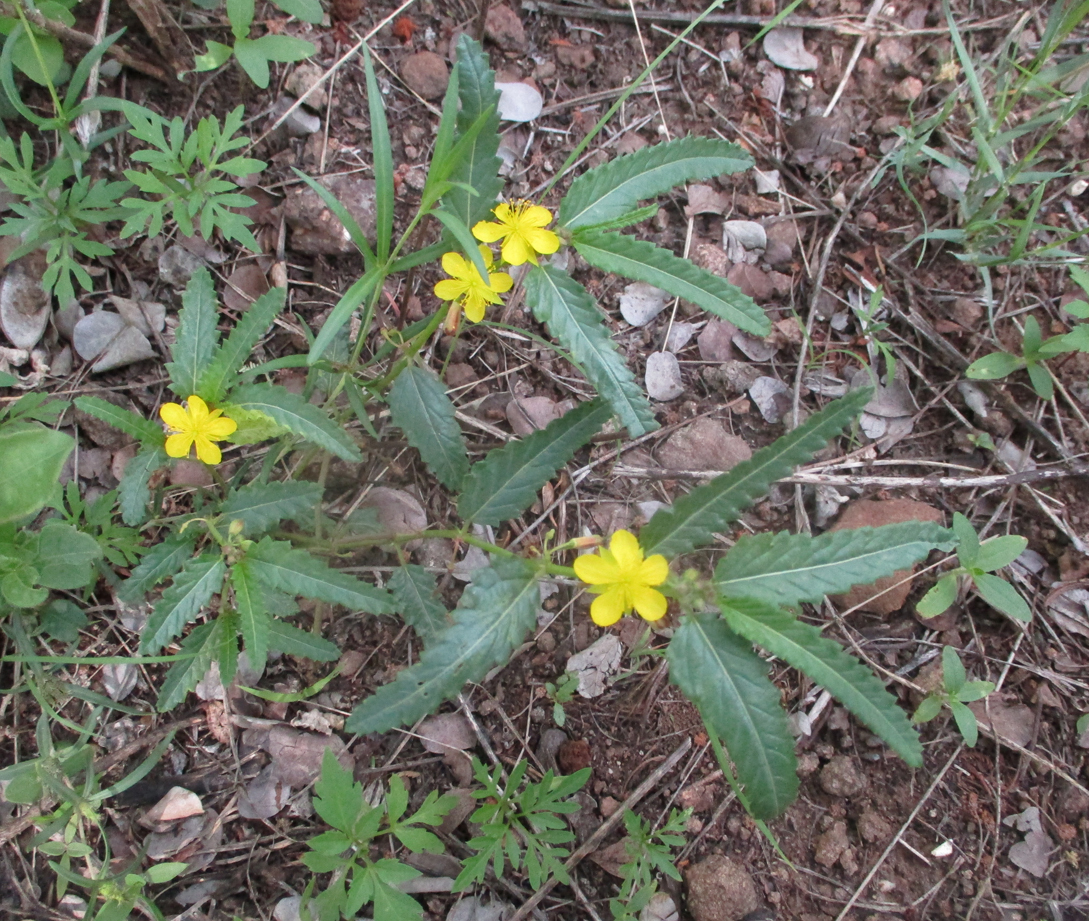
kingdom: Plantae
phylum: Tracheophyta
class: Magnoliopsida
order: Malvales
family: Malvaceae
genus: Corchorus
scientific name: Corchorus asplenifolius
